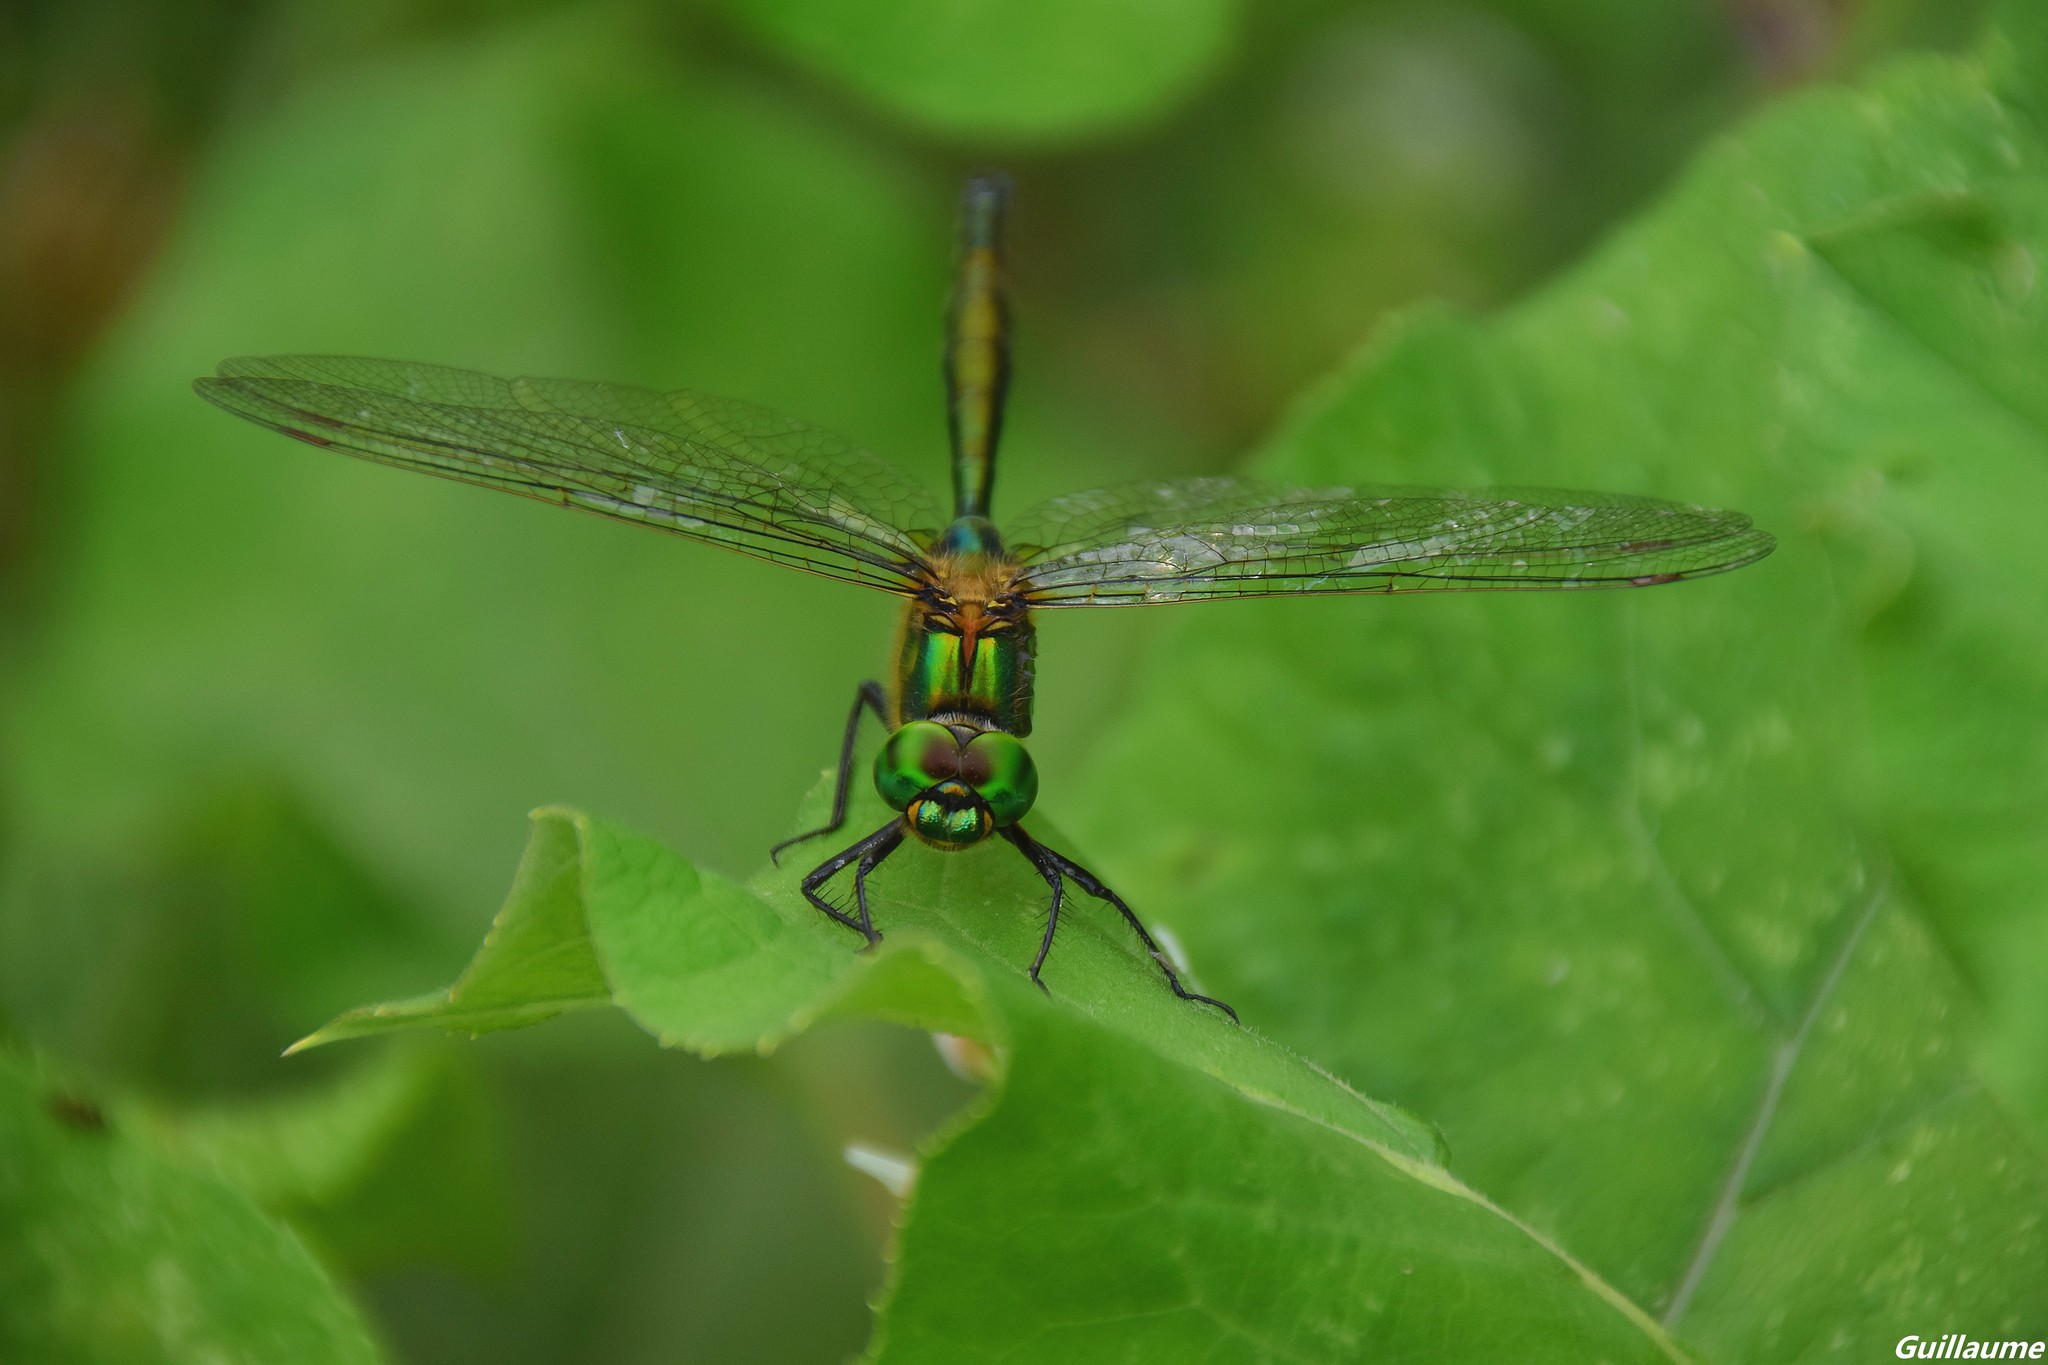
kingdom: Animalia
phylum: Arthropoda
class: Insecta
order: Odonata
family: Corduliidae
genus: Somatochlora
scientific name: Somatochlora metallica
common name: Brilliant emerald
